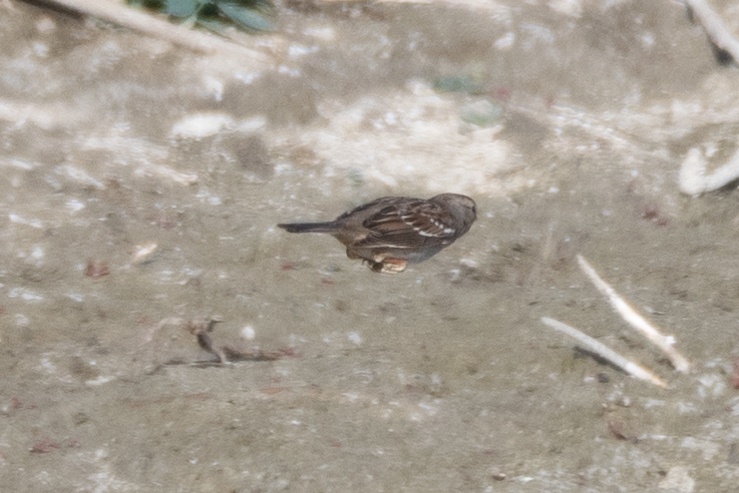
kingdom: Animalia
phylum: Chordata
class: Aves
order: Passeriformes
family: Passerellidae
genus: Zonotrichia
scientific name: Zonotrichia
